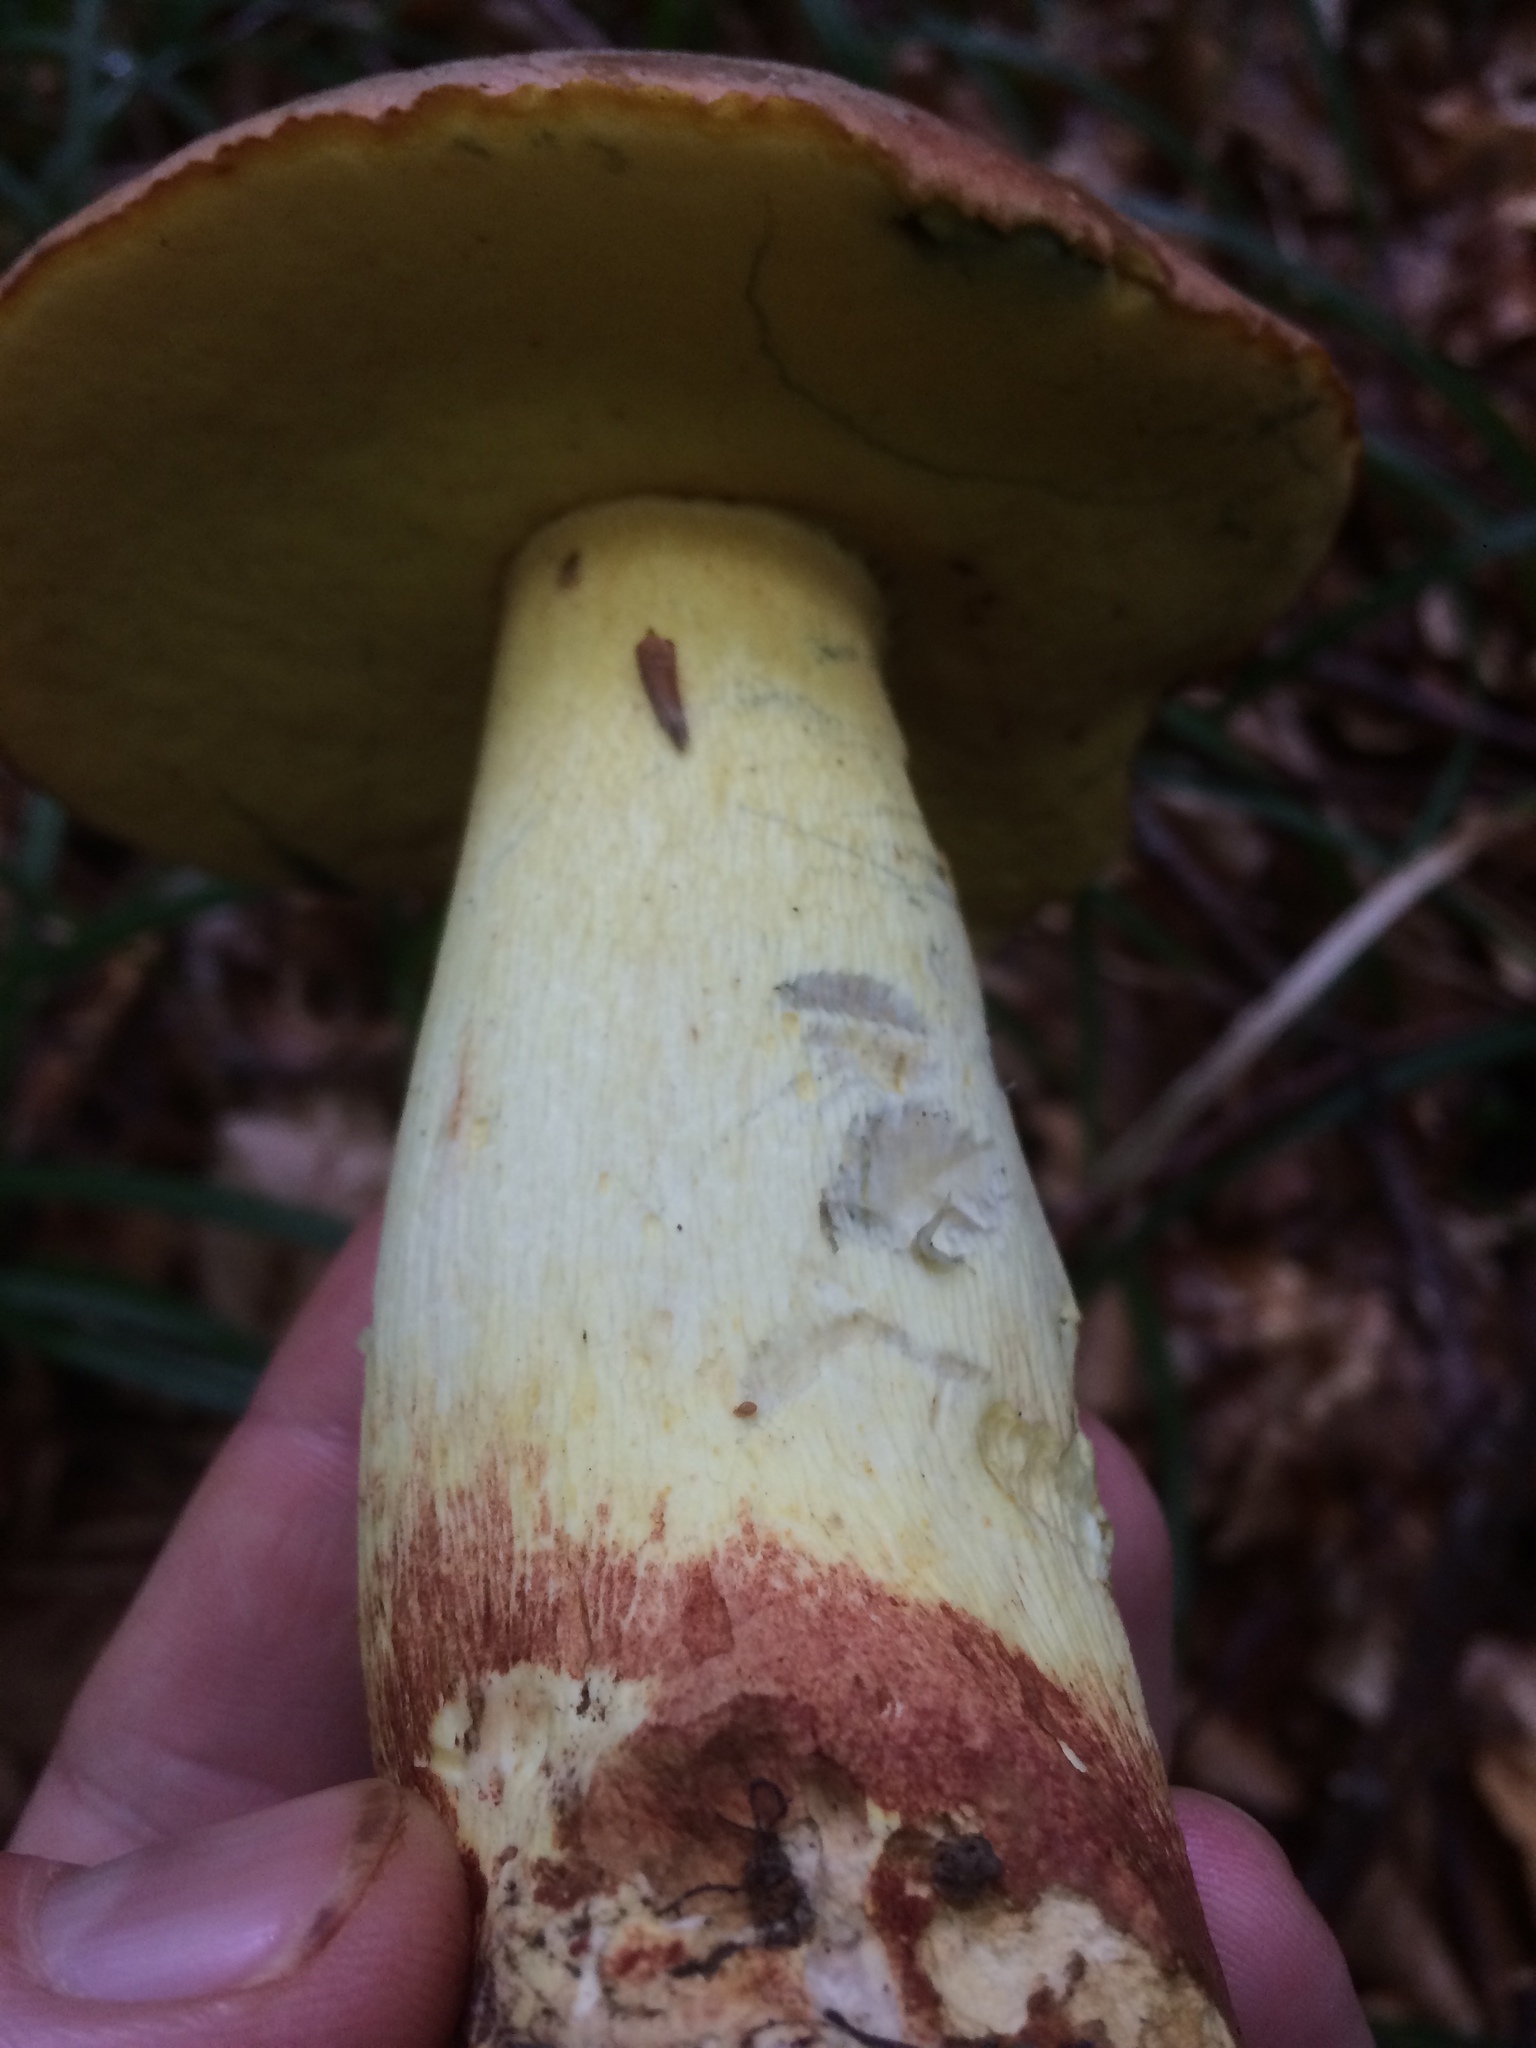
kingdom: Fungi
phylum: Basidiomycota
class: Agaricomycetes
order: Boletales
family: Boletaceae
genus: Butyriboletus
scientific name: Butyriboletus pseudoregius
